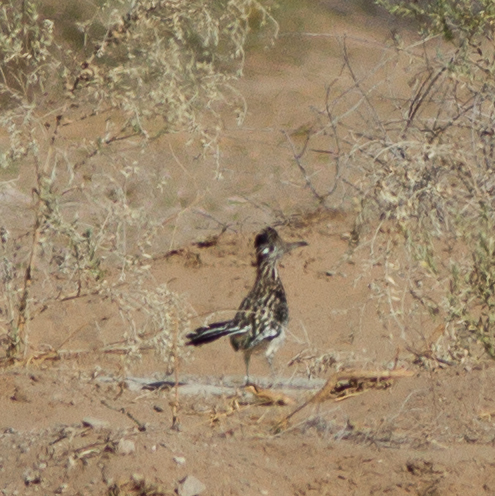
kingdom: Animalia
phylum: Chordata
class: Aves
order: Cuculiformes
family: Cuculidae
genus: Geococcyx
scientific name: Geococcyx californianus
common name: Greater roadrunner
